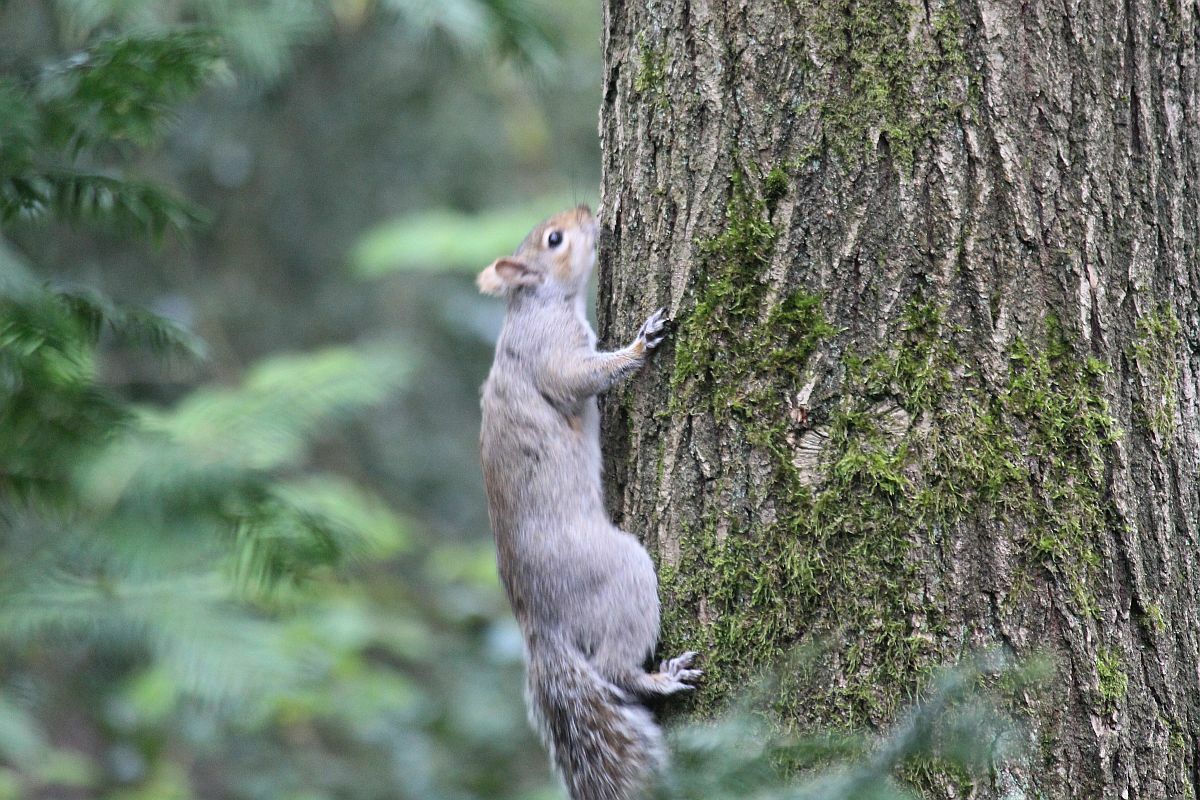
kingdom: Animalia
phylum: Chordata
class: Mammalia
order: Rodentia
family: Sciuridae
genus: Sciurus
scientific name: Sciurus carolinensis
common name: Eastern gray squirrel
